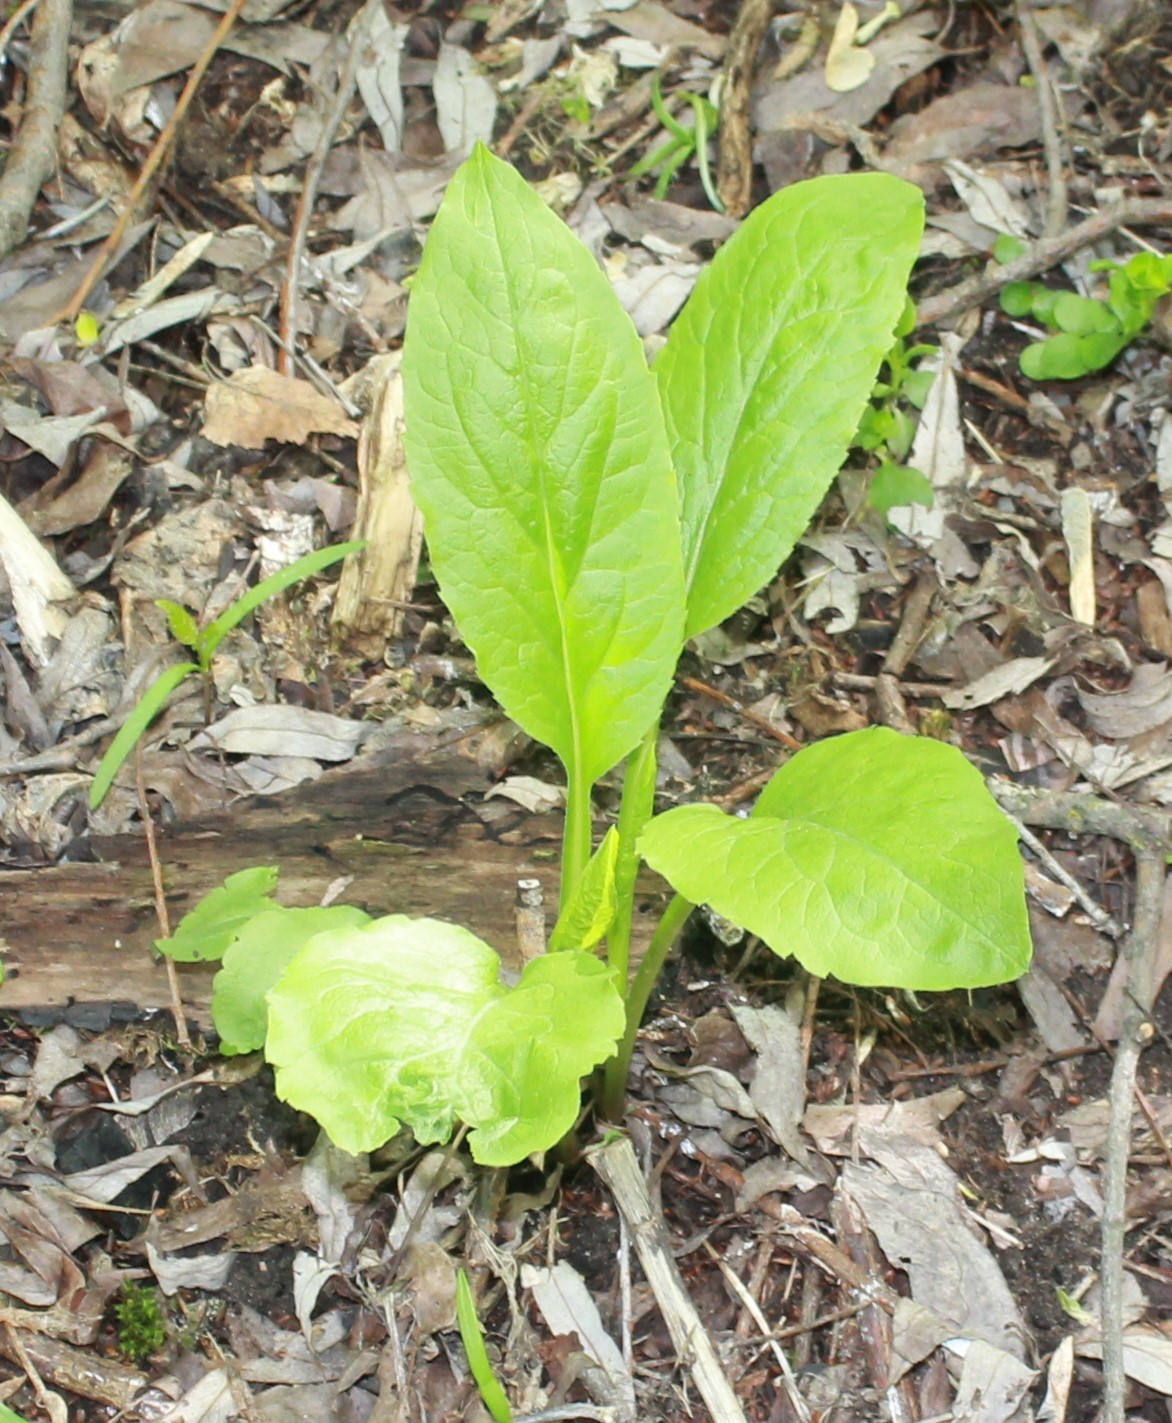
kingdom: Plantae
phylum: Tracheophyta
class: Magnoliopsida
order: Asterales
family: Asteraceae
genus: Solidago
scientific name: Solidago virgaurea
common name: Goldenrod
